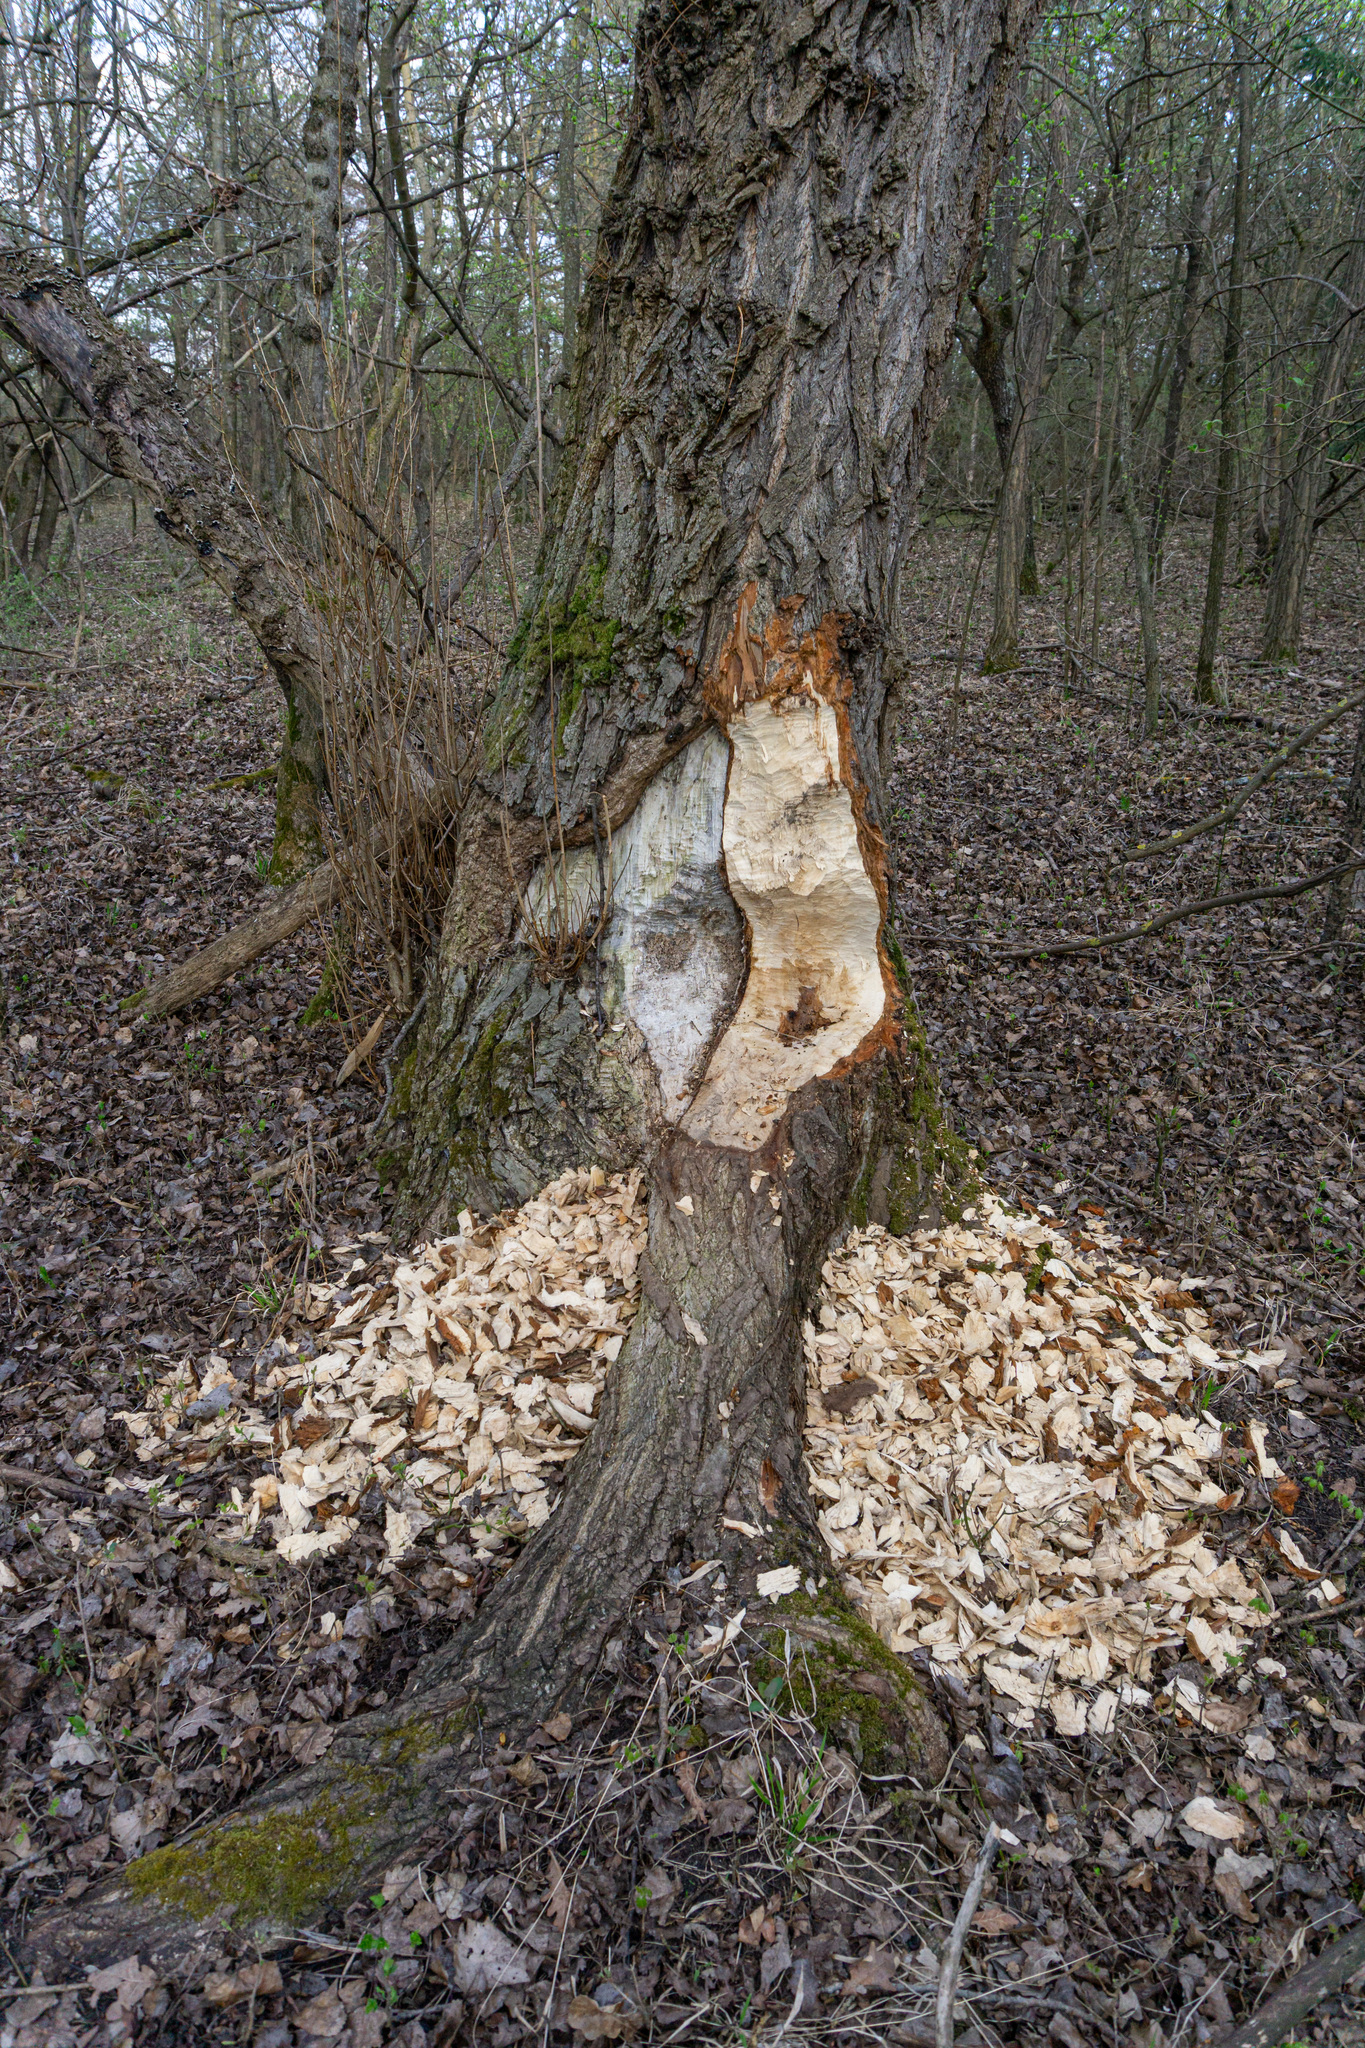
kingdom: Animalia
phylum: Chordata
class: Mammalia
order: Rodentia
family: Castoridae
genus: Castor
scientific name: Castor fiber
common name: Eurasian beaver
